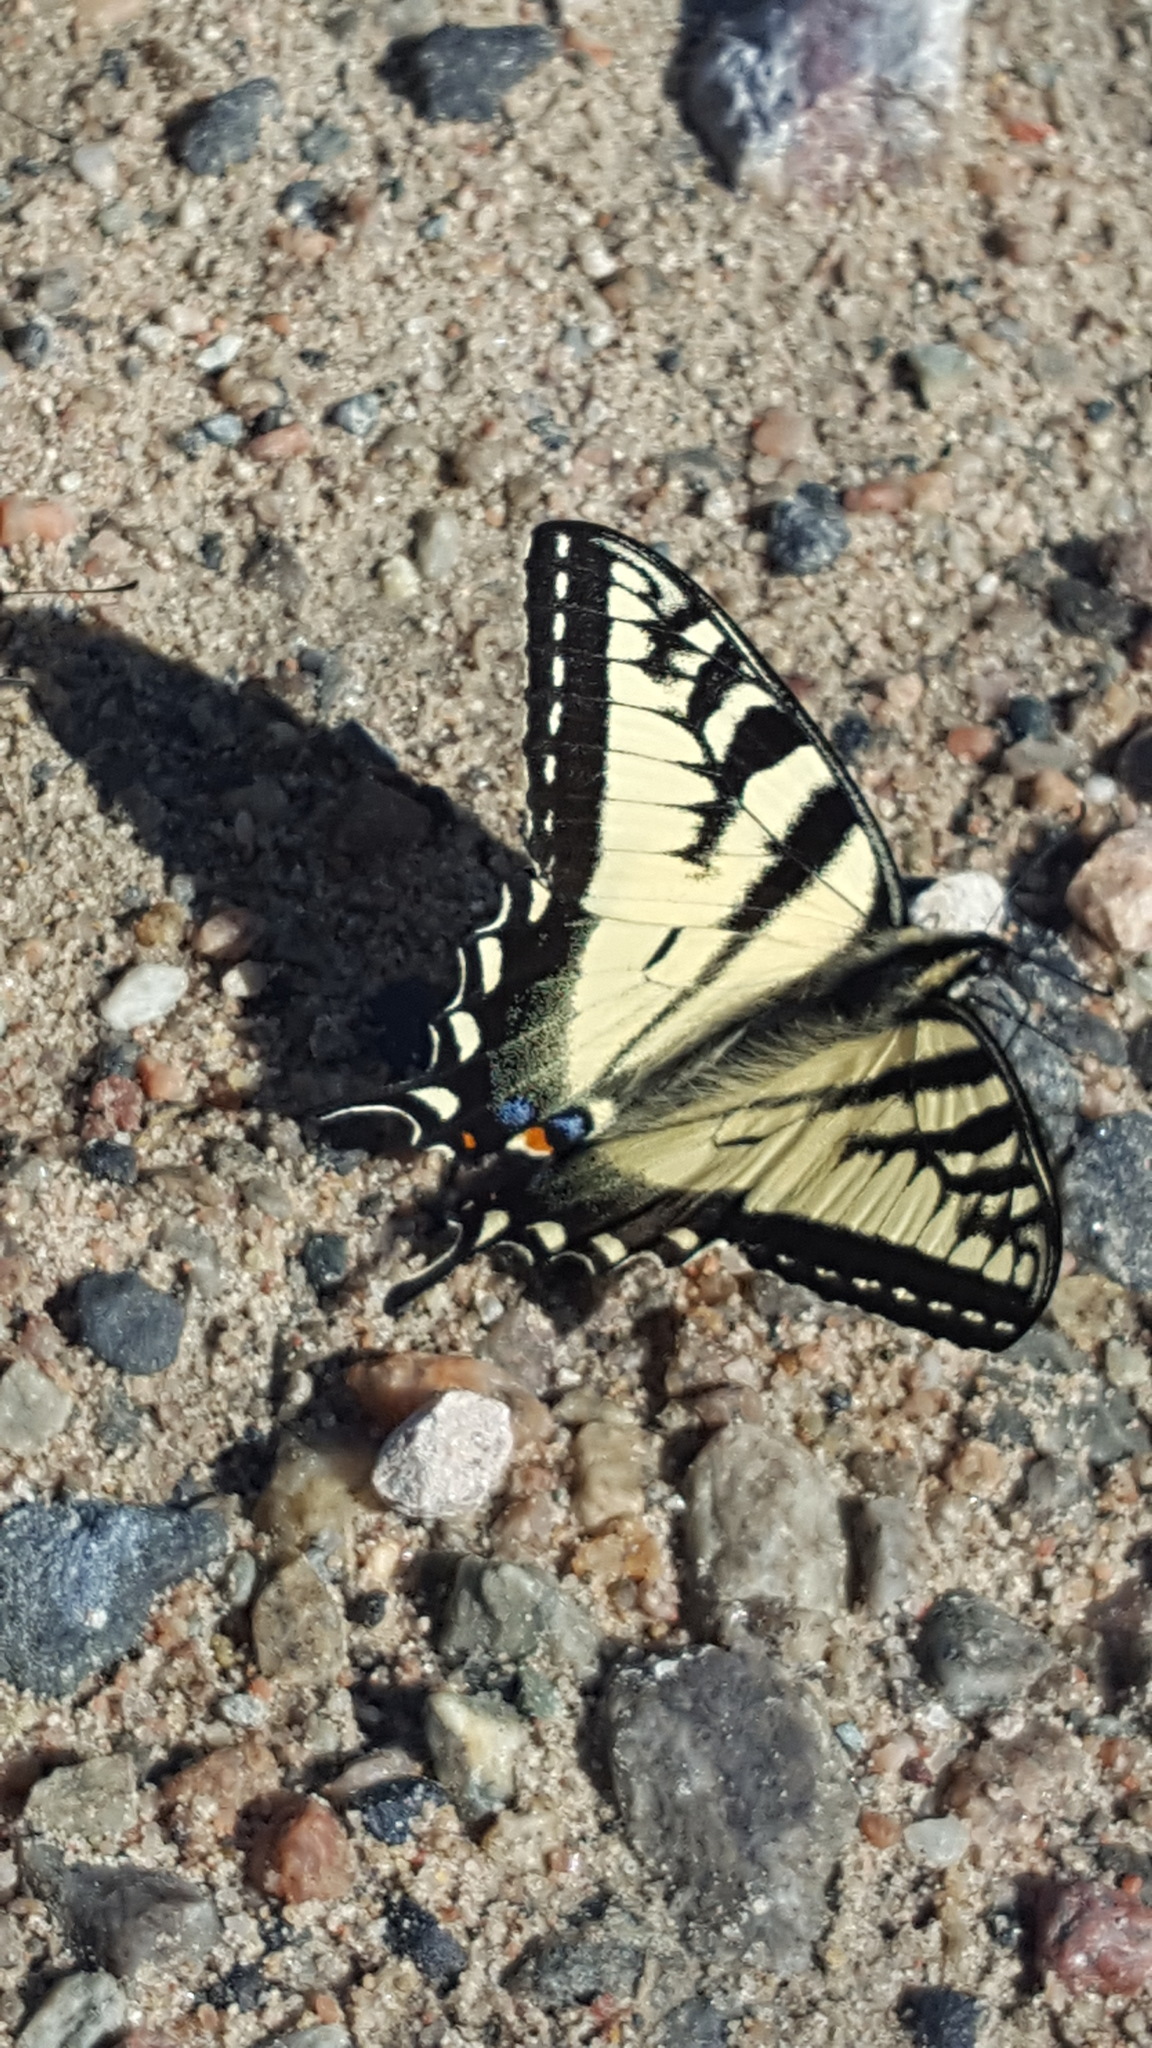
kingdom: Animalia
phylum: Arthropoda
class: Insecta
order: Lepidoptera
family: Papilionidae
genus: Papilio
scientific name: Papilio canadensis
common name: Canadian tiger swallowtail
